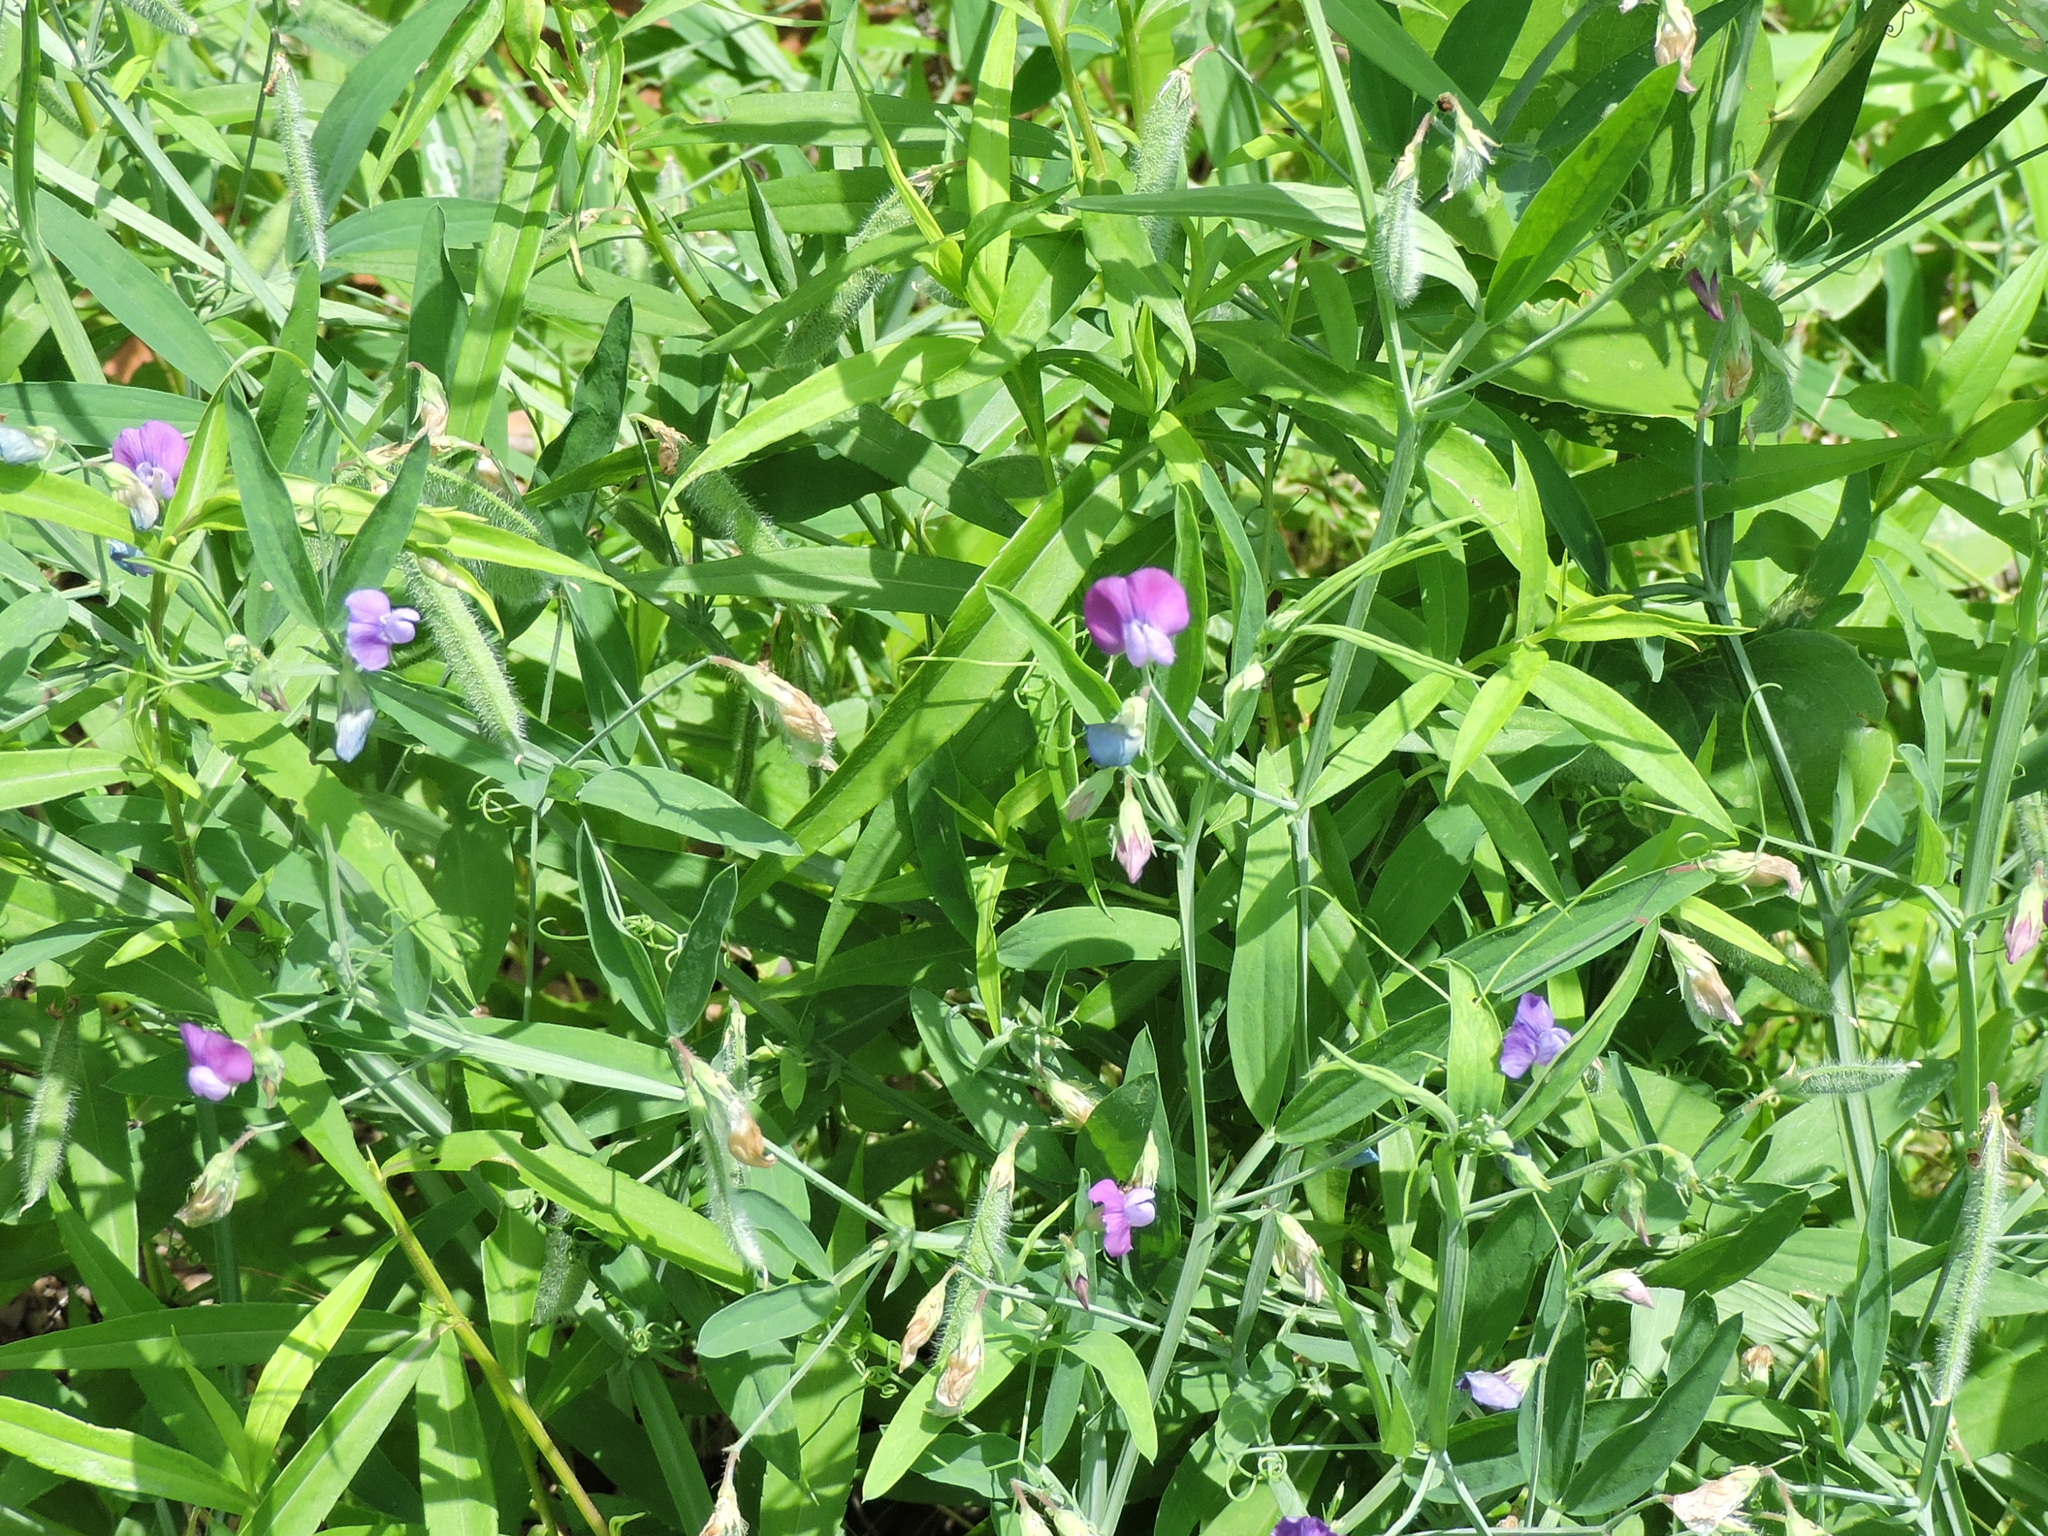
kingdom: Plantae
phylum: Tracheophyta
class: Magnoliopsida
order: Fabales
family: Fabaceae
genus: Lathyrus
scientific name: Lathyrus hirsutus
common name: Hairy vetchling
